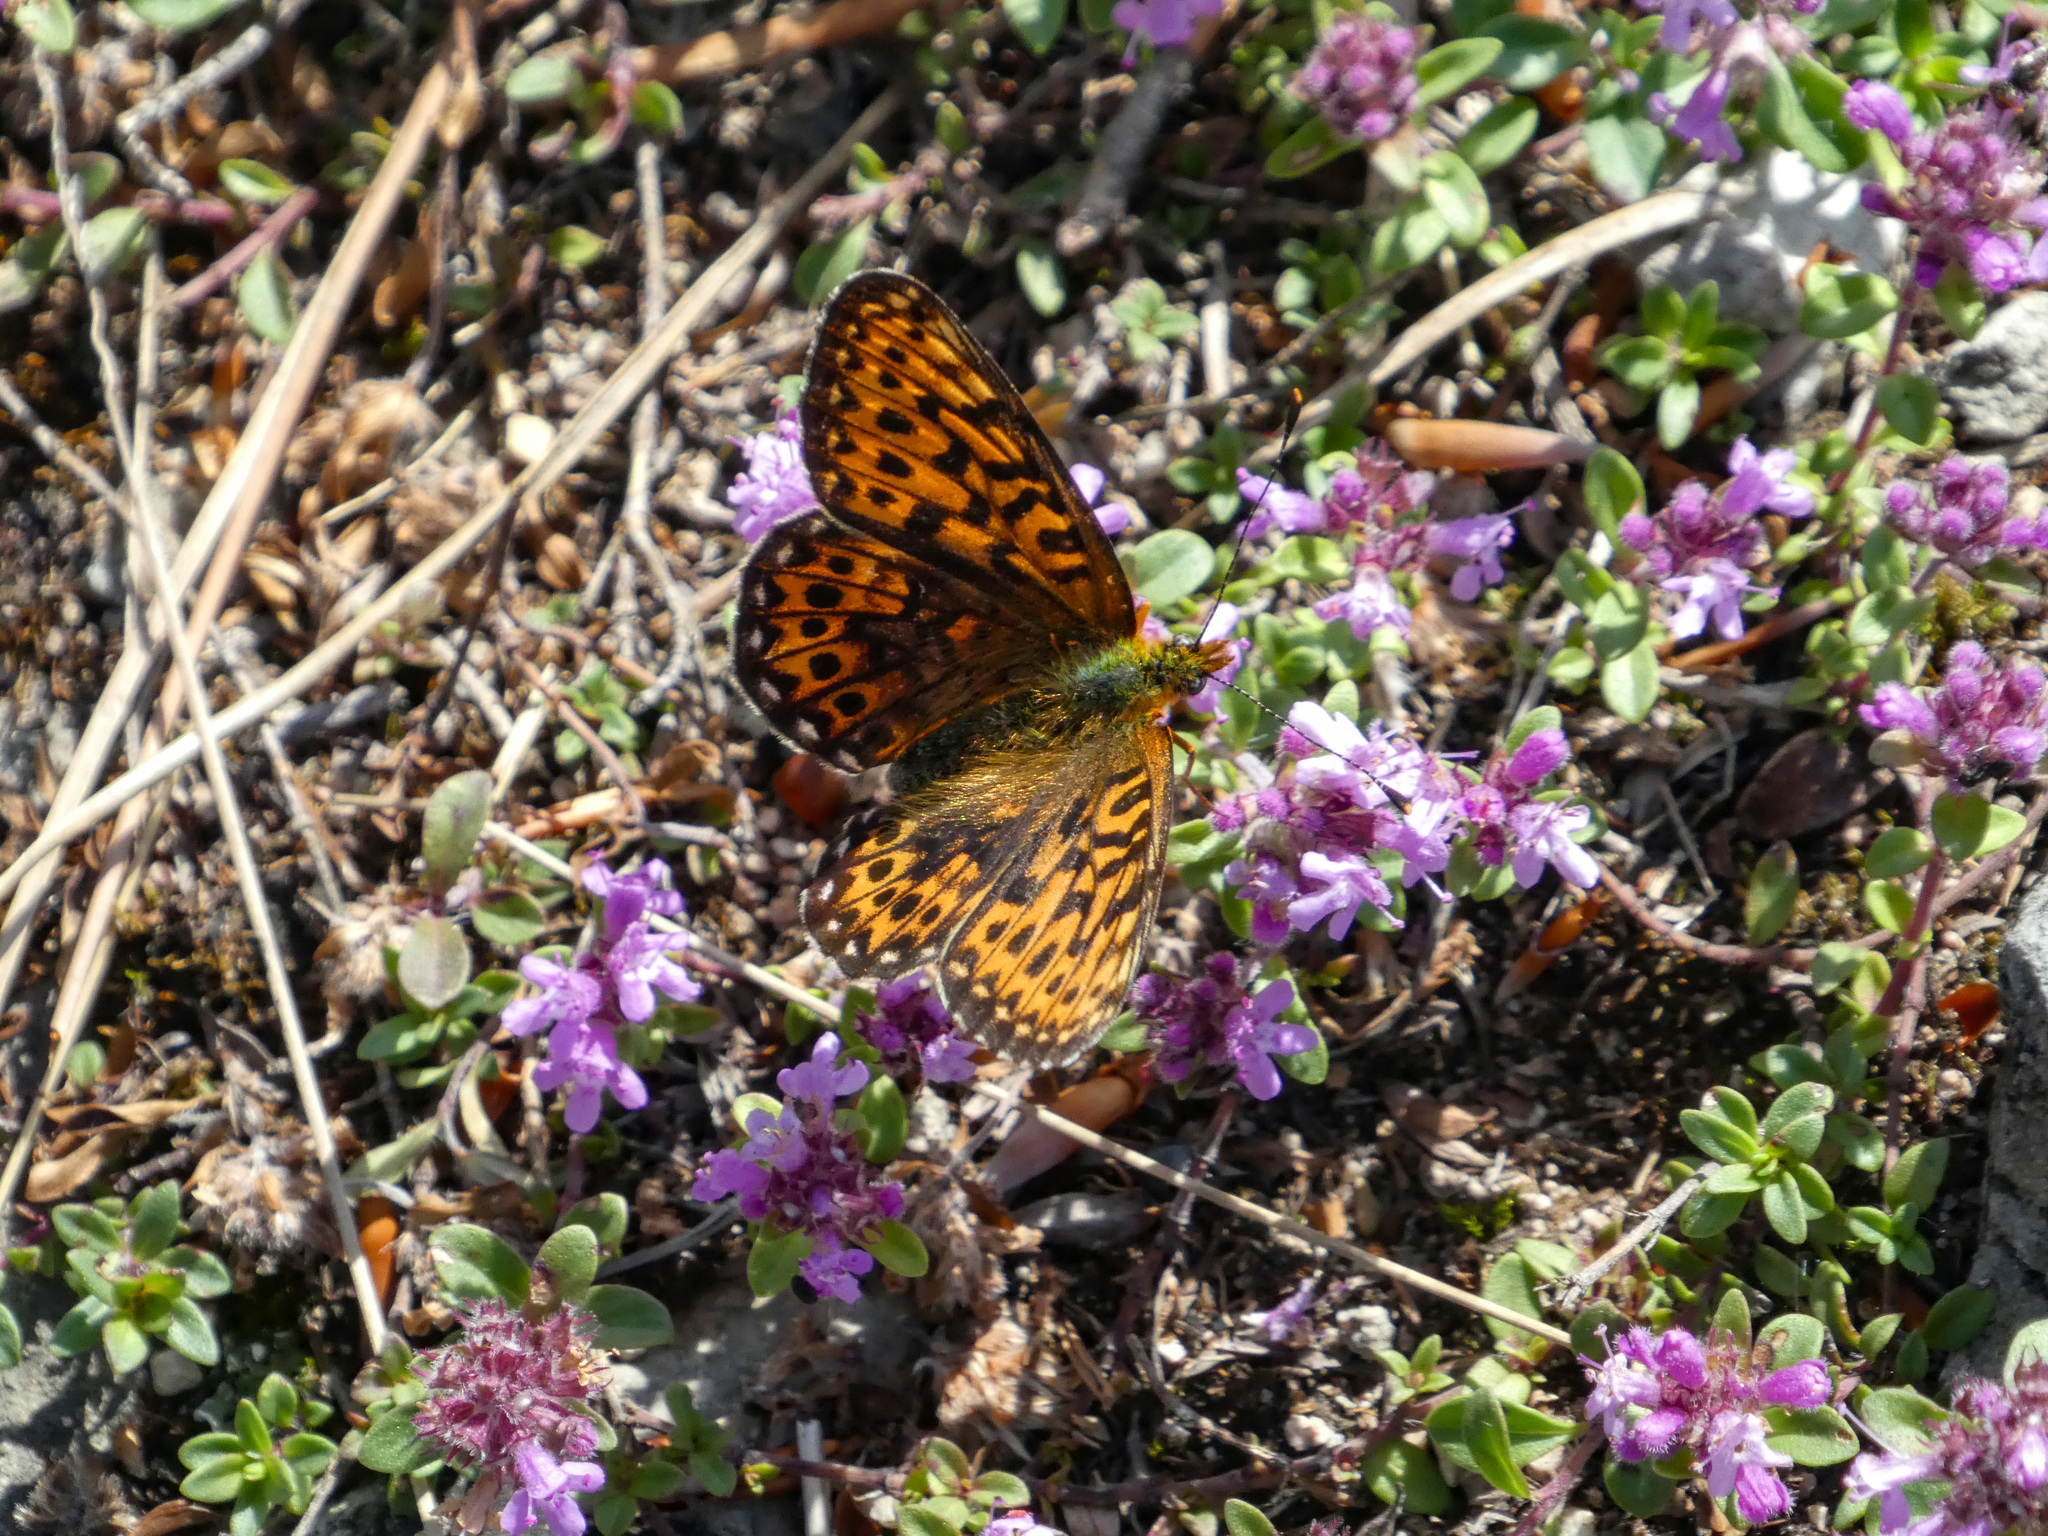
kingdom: Animalia
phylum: Arthropoda
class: Insecta
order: Lepidoptera
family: Nymphalidae
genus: Clossiana
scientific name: Clossiana euphrosyne
